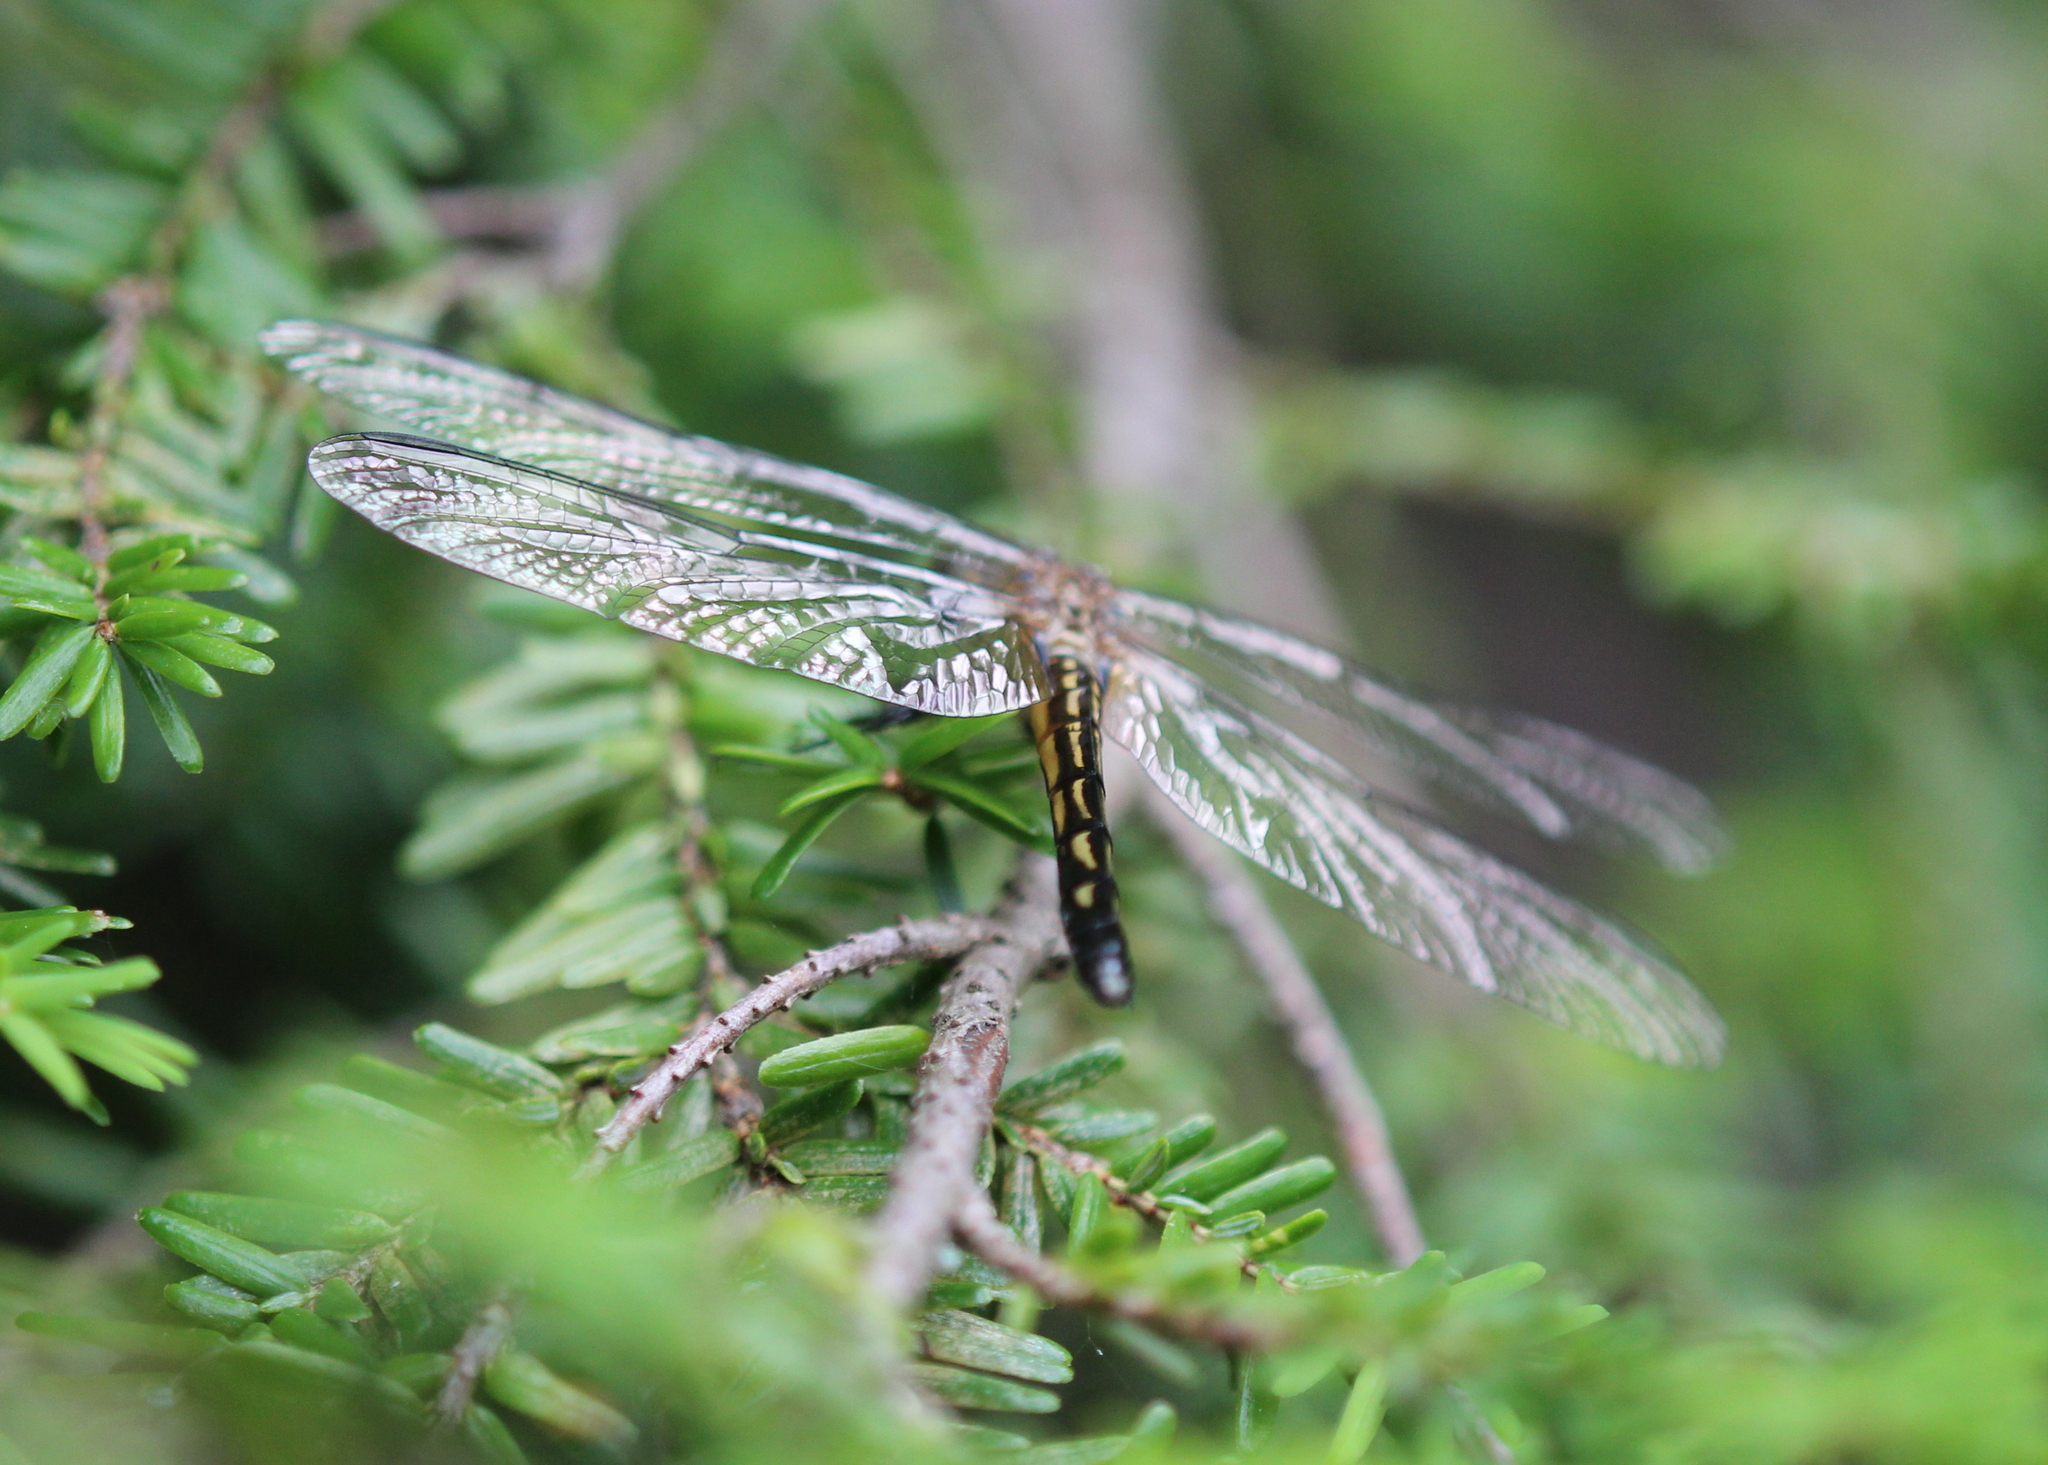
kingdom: Animalia
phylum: Arthropoda
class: Insecta
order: Odonata
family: Libellulidae
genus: Pachydiplax
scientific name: Pachydiplax longipennis
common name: Blue dasher
